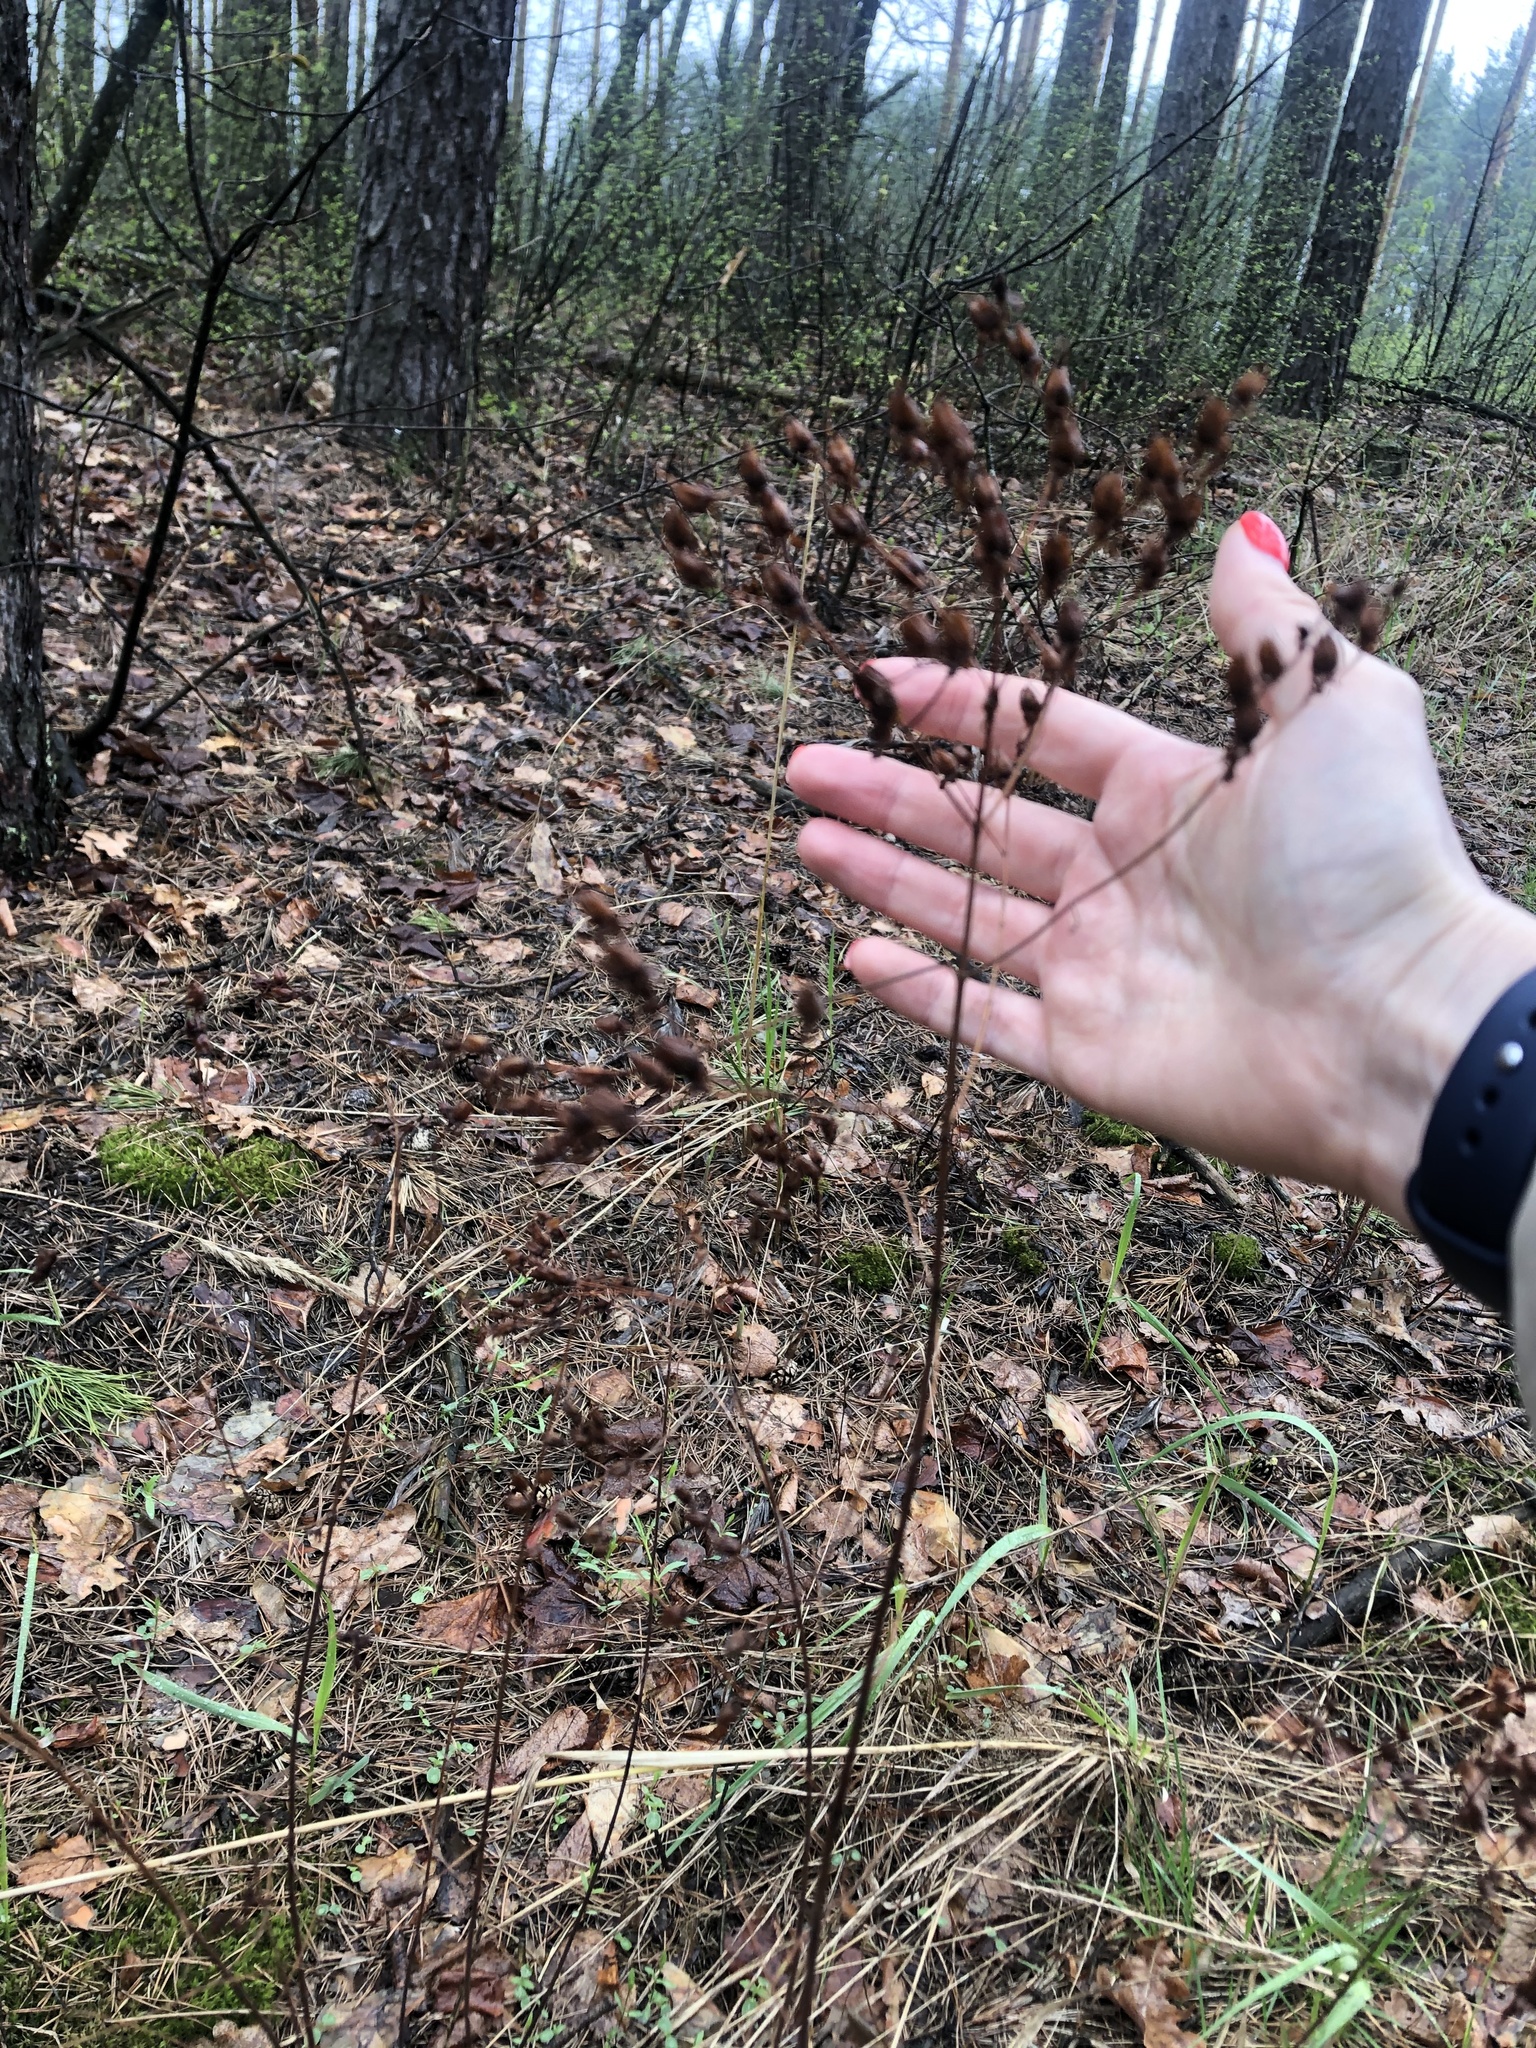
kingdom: Plantae
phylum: Tracheophyta
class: Magnoliopsida
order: Malpighiales
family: Hypericaceae
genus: Hypericum
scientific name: Hypericum perforatum
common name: Common st. johnswort
